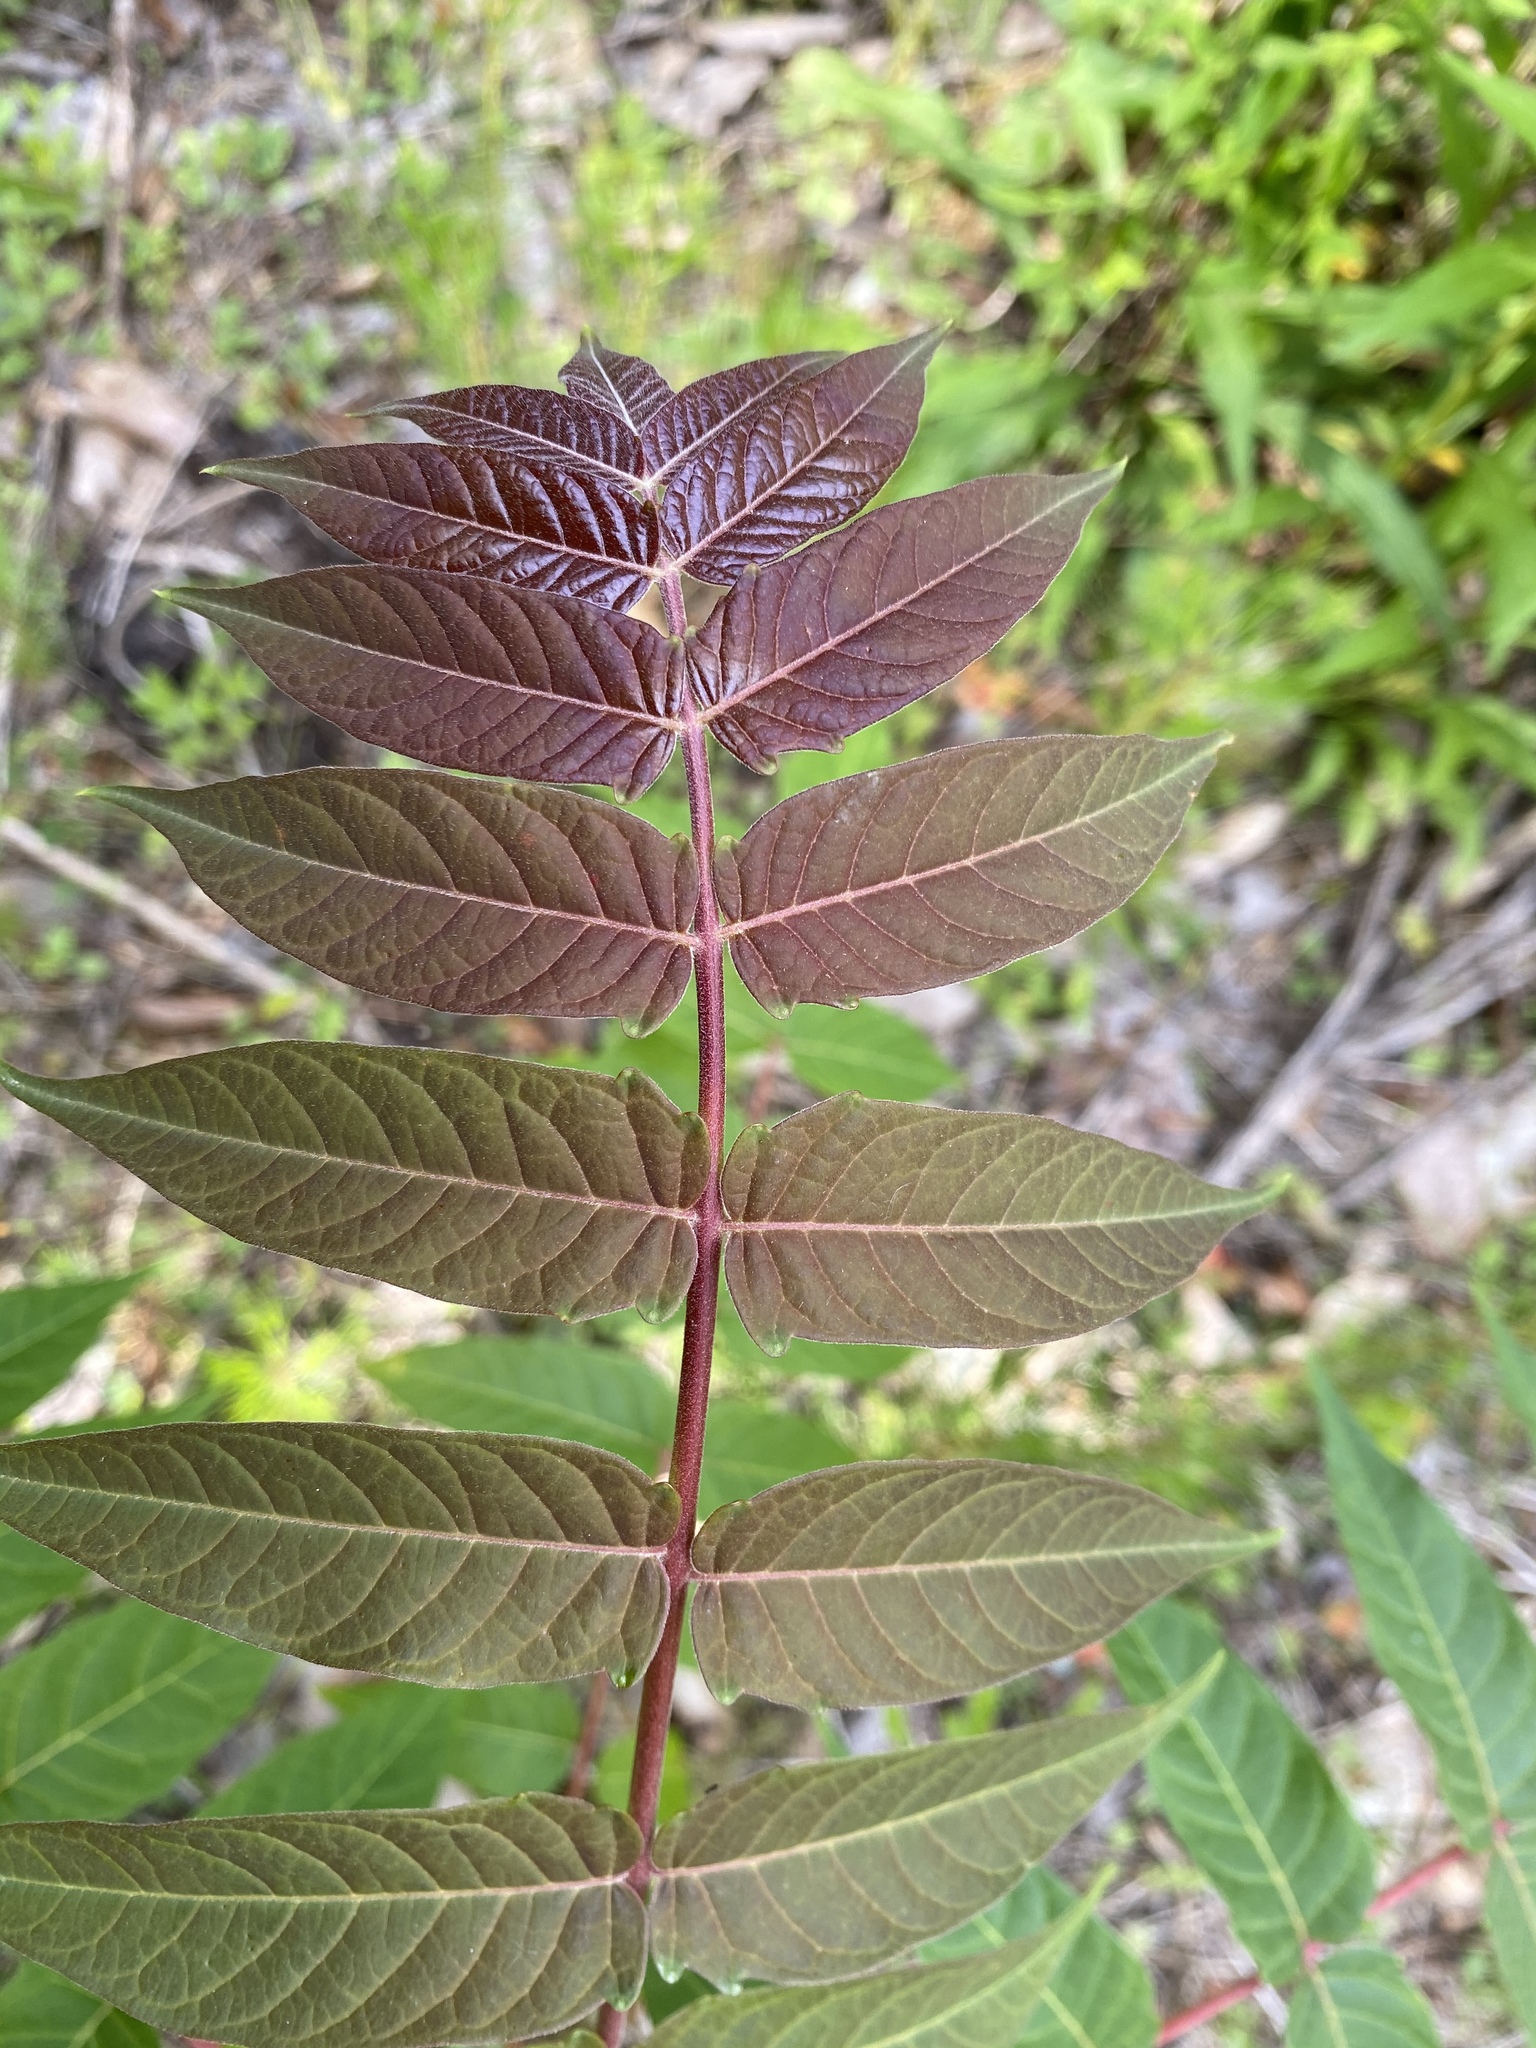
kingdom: Plantae
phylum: Tracheophyta
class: Magnoliopsida
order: Sapindales
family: Simaroubaceae
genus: Ailanthus
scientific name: Ailanthus altissima
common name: Tree-of-heaven
